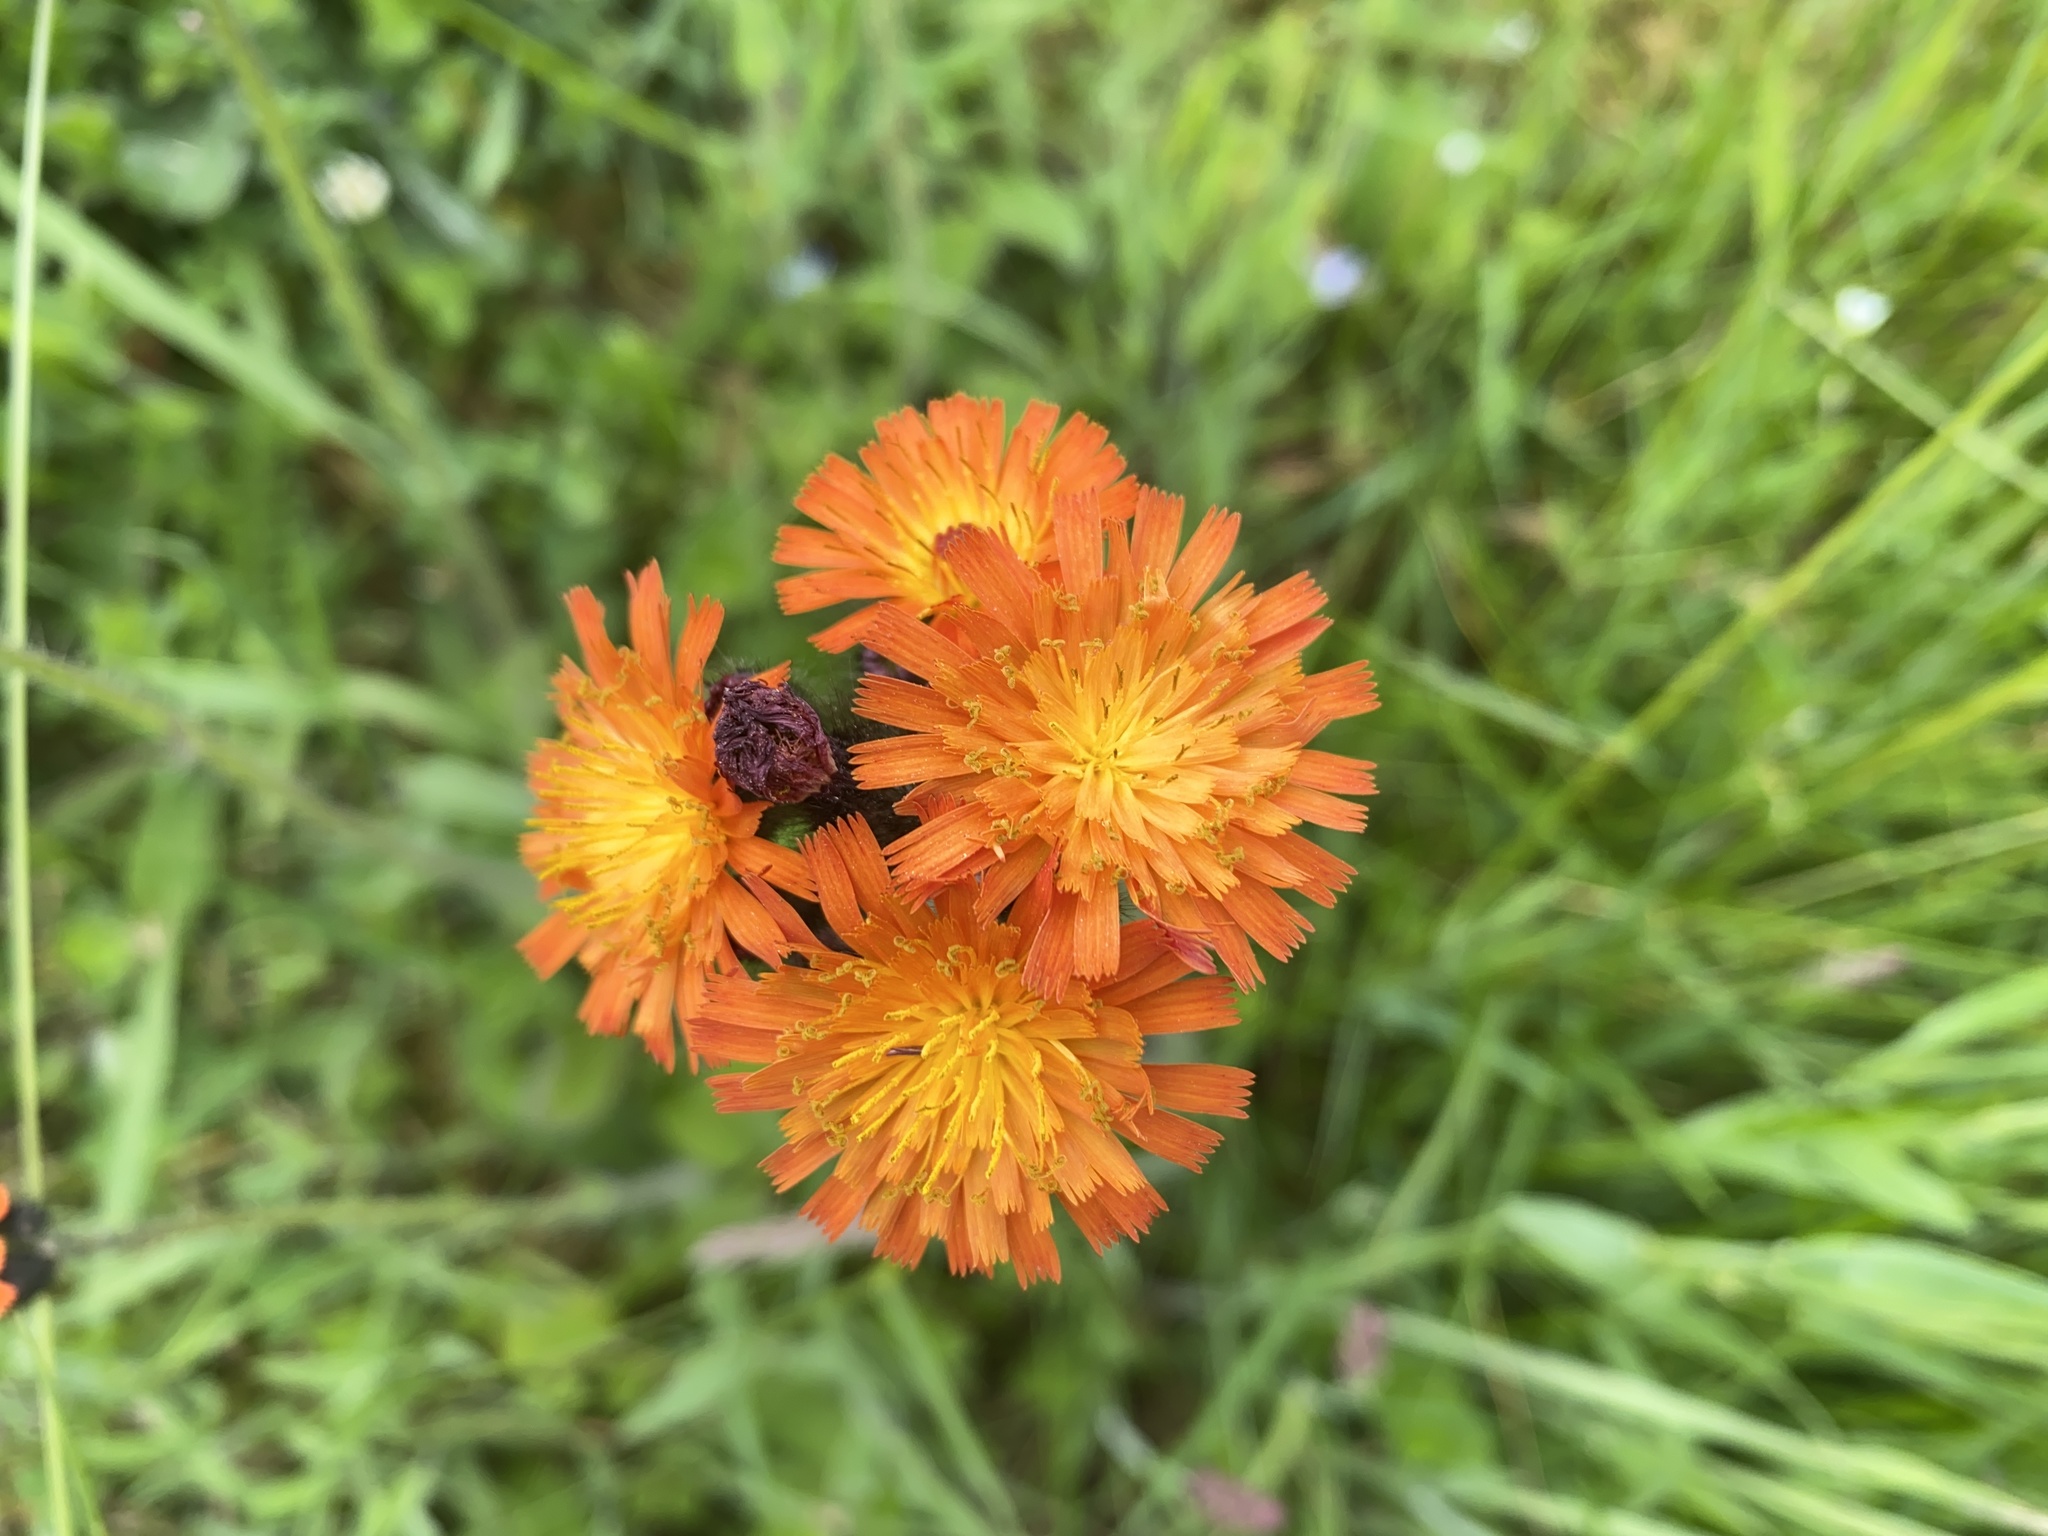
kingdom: Plantae
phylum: Tracheophyta
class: Magnoliopsida
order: Asterales
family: Asteraceae
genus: Pilosella
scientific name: Pilosella aurantiaca
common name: Fox-and-cubs
